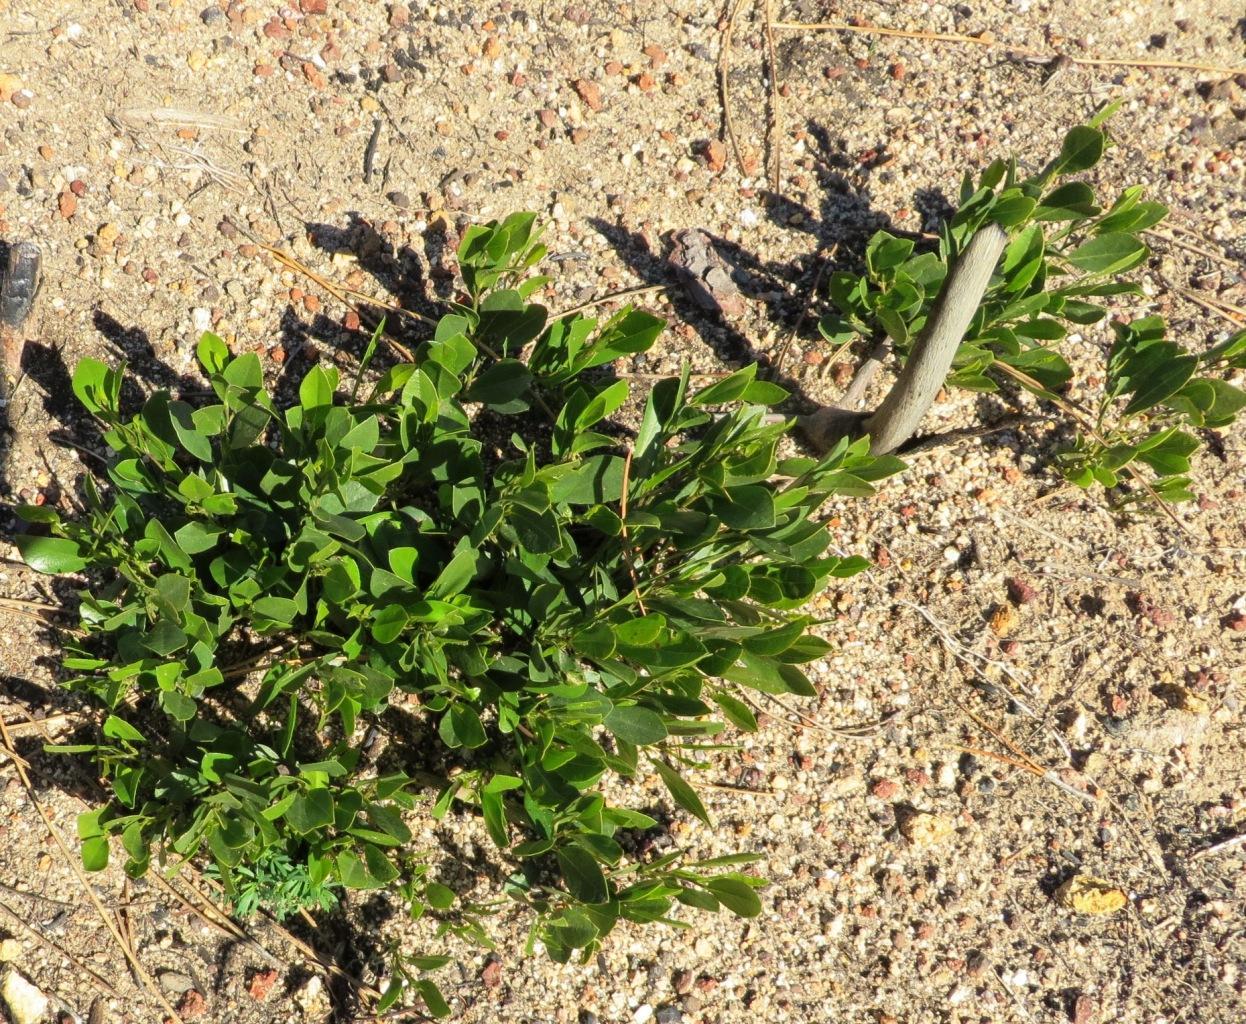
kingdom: Plantae
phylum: Tracheophyta
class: Magnoliopsida
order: Fabales
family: Fabaceae
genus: Psoralea
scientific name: Psoralea rotundifolia
